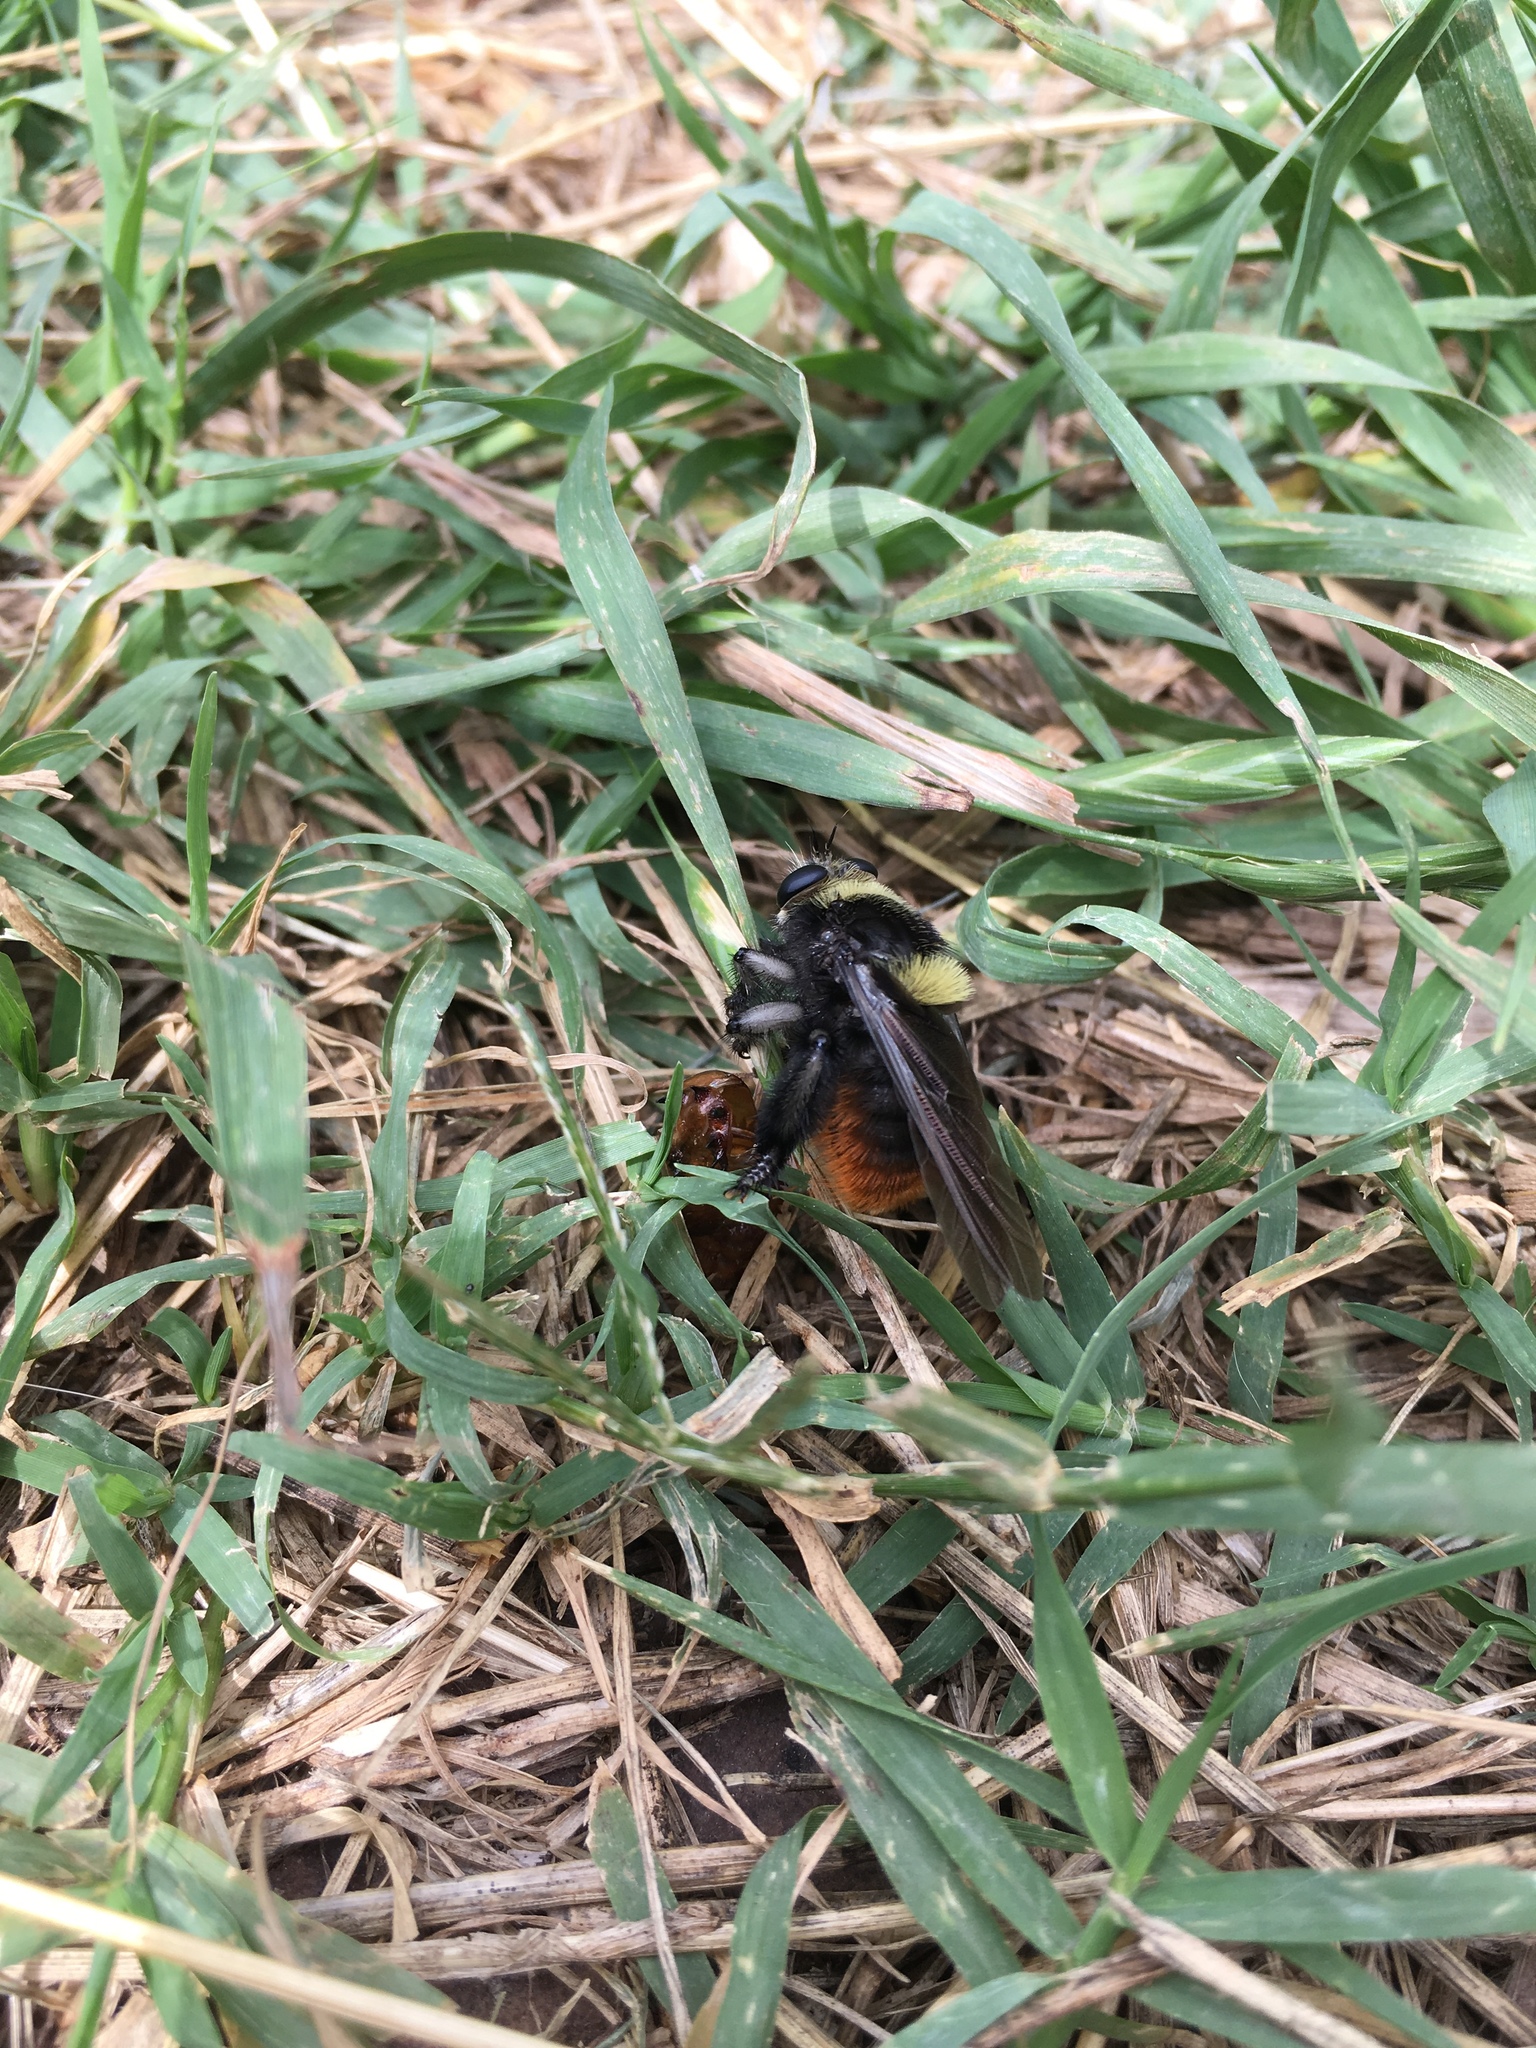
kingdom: Animalia
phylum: Arthropoda
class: Insecta
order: Diptera
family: Asilidae
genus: Mallophora
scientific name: Mallophora ruficauda
